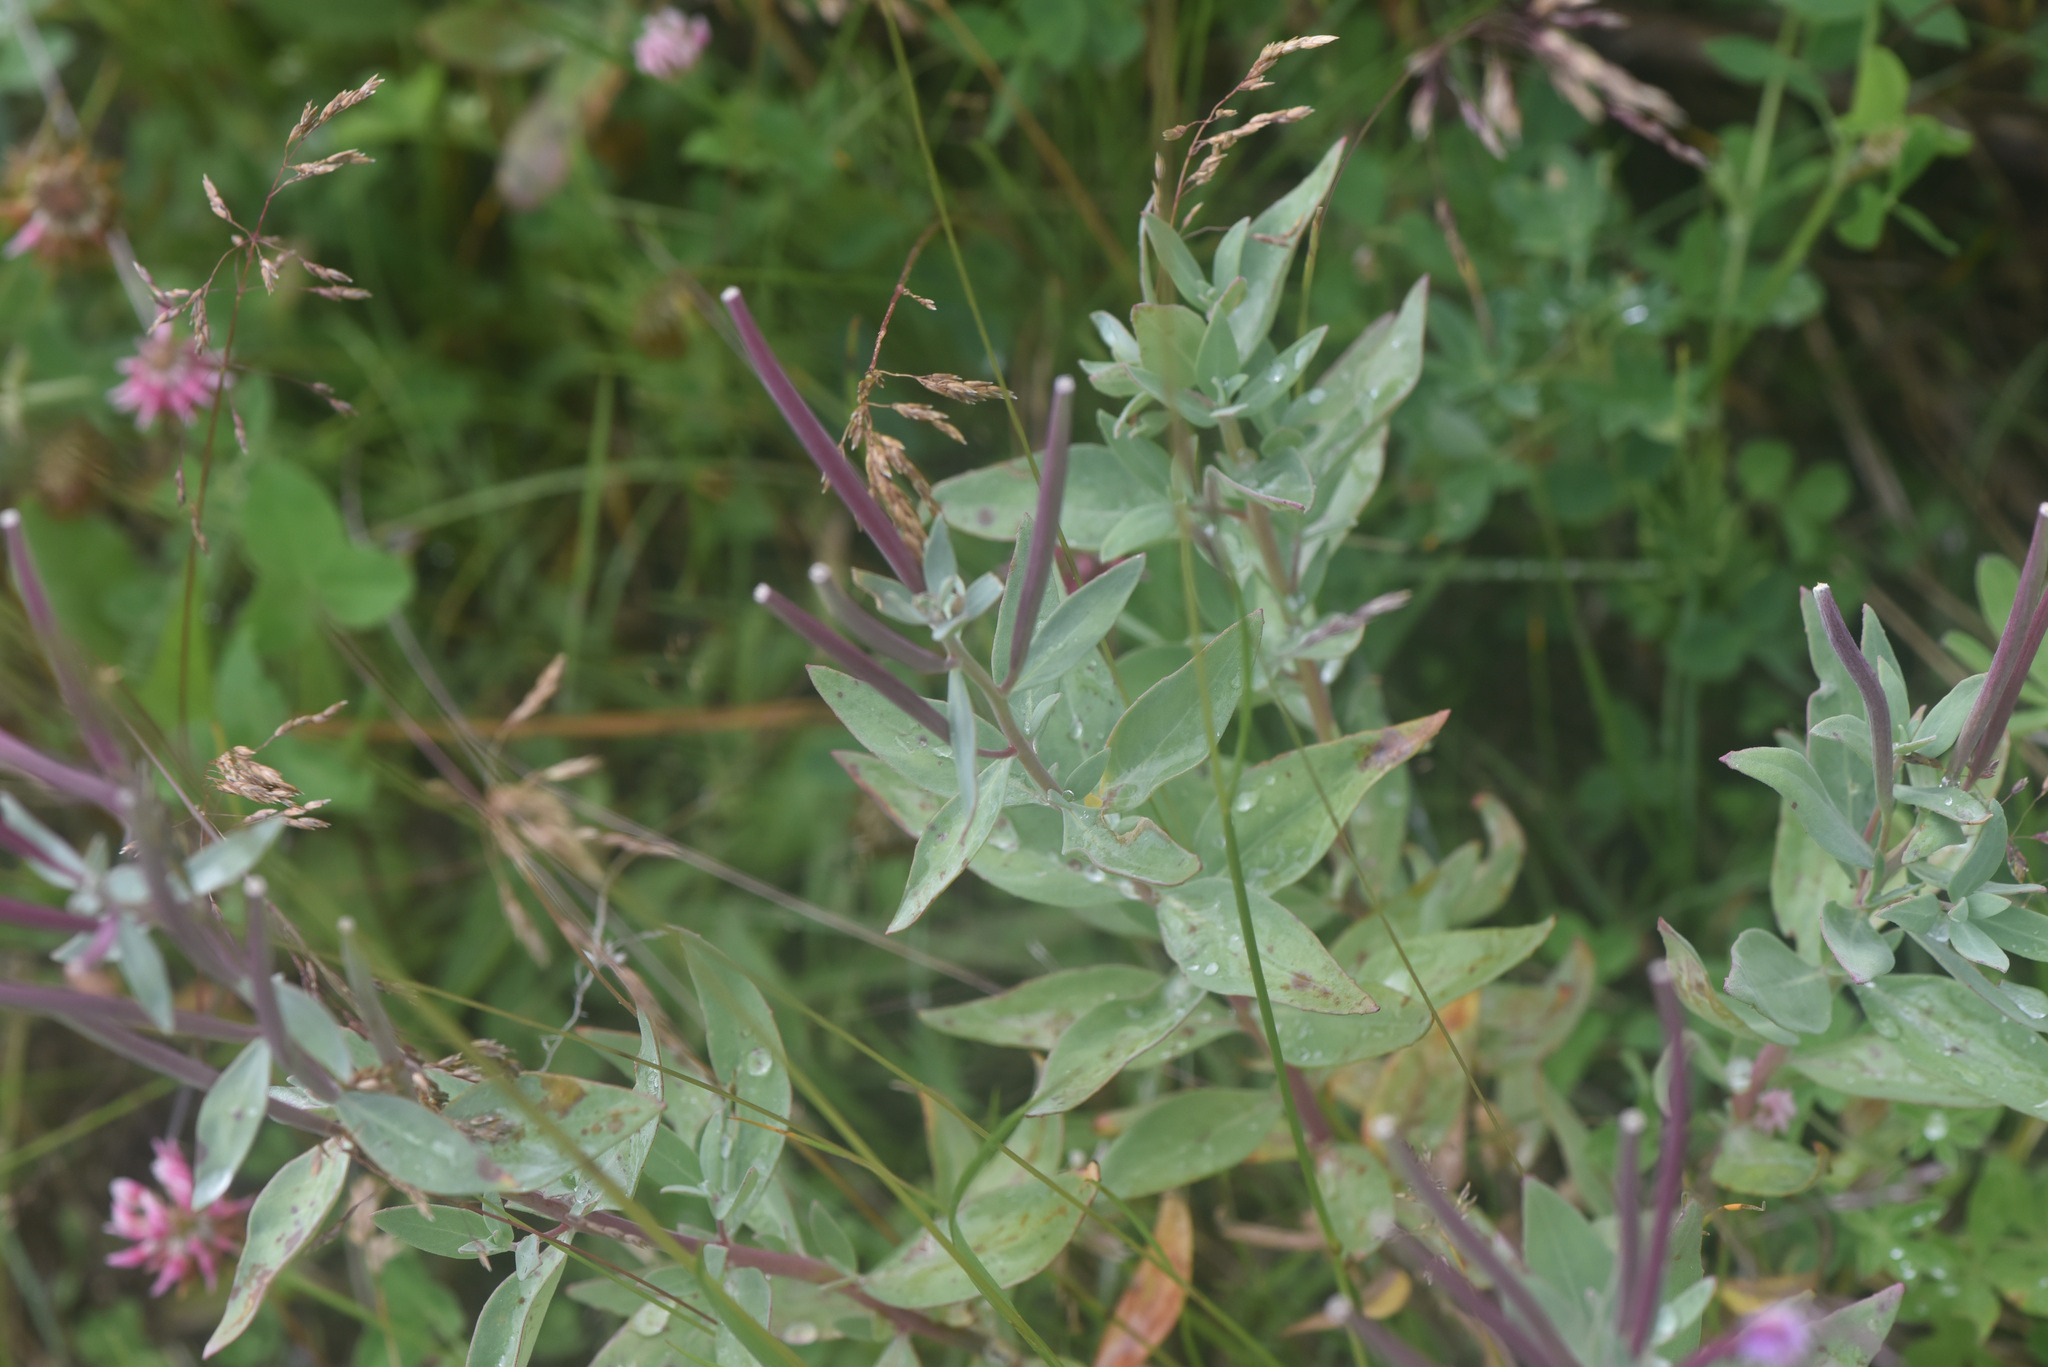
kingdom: Plantae
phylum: Tracheophyta
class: Magnoliopsida
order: Myrtales
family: Onagraceae
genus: Chamaenerion
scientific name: Chamaenerion latifolium
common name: Dwarf fireweed
